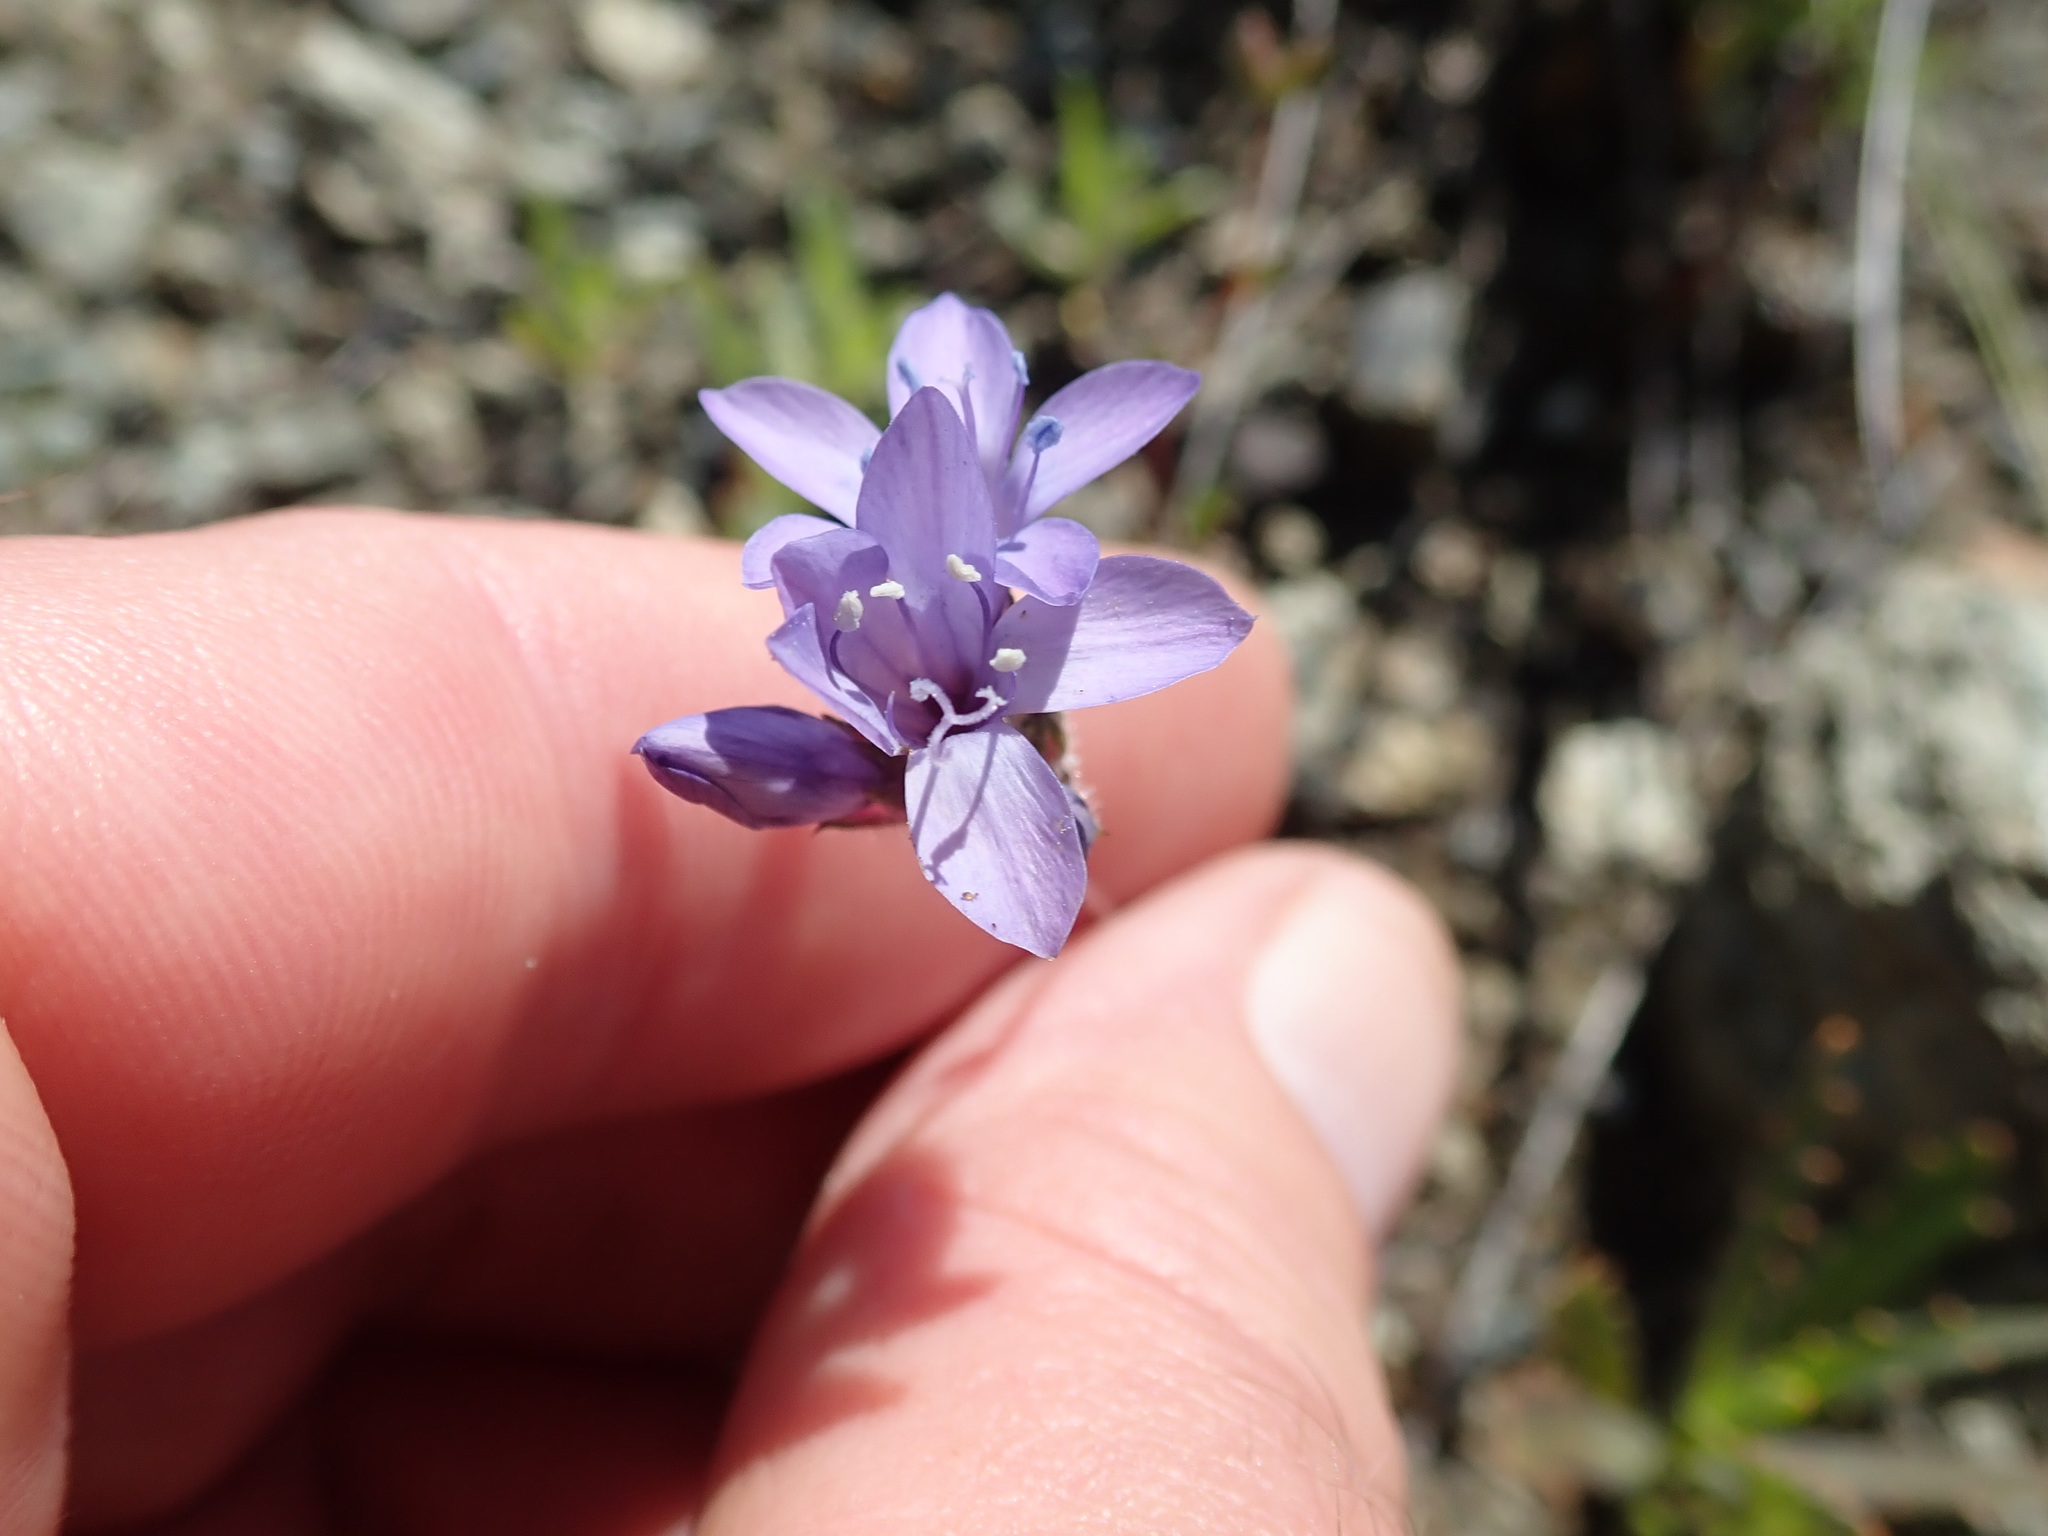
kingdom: Plantae
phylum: Tracheophyta
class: Magnoliopsida
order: Ericales
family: Polemoniaceae
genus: Gilia
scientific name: Gilia achilleifolia
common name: California gily-flower
